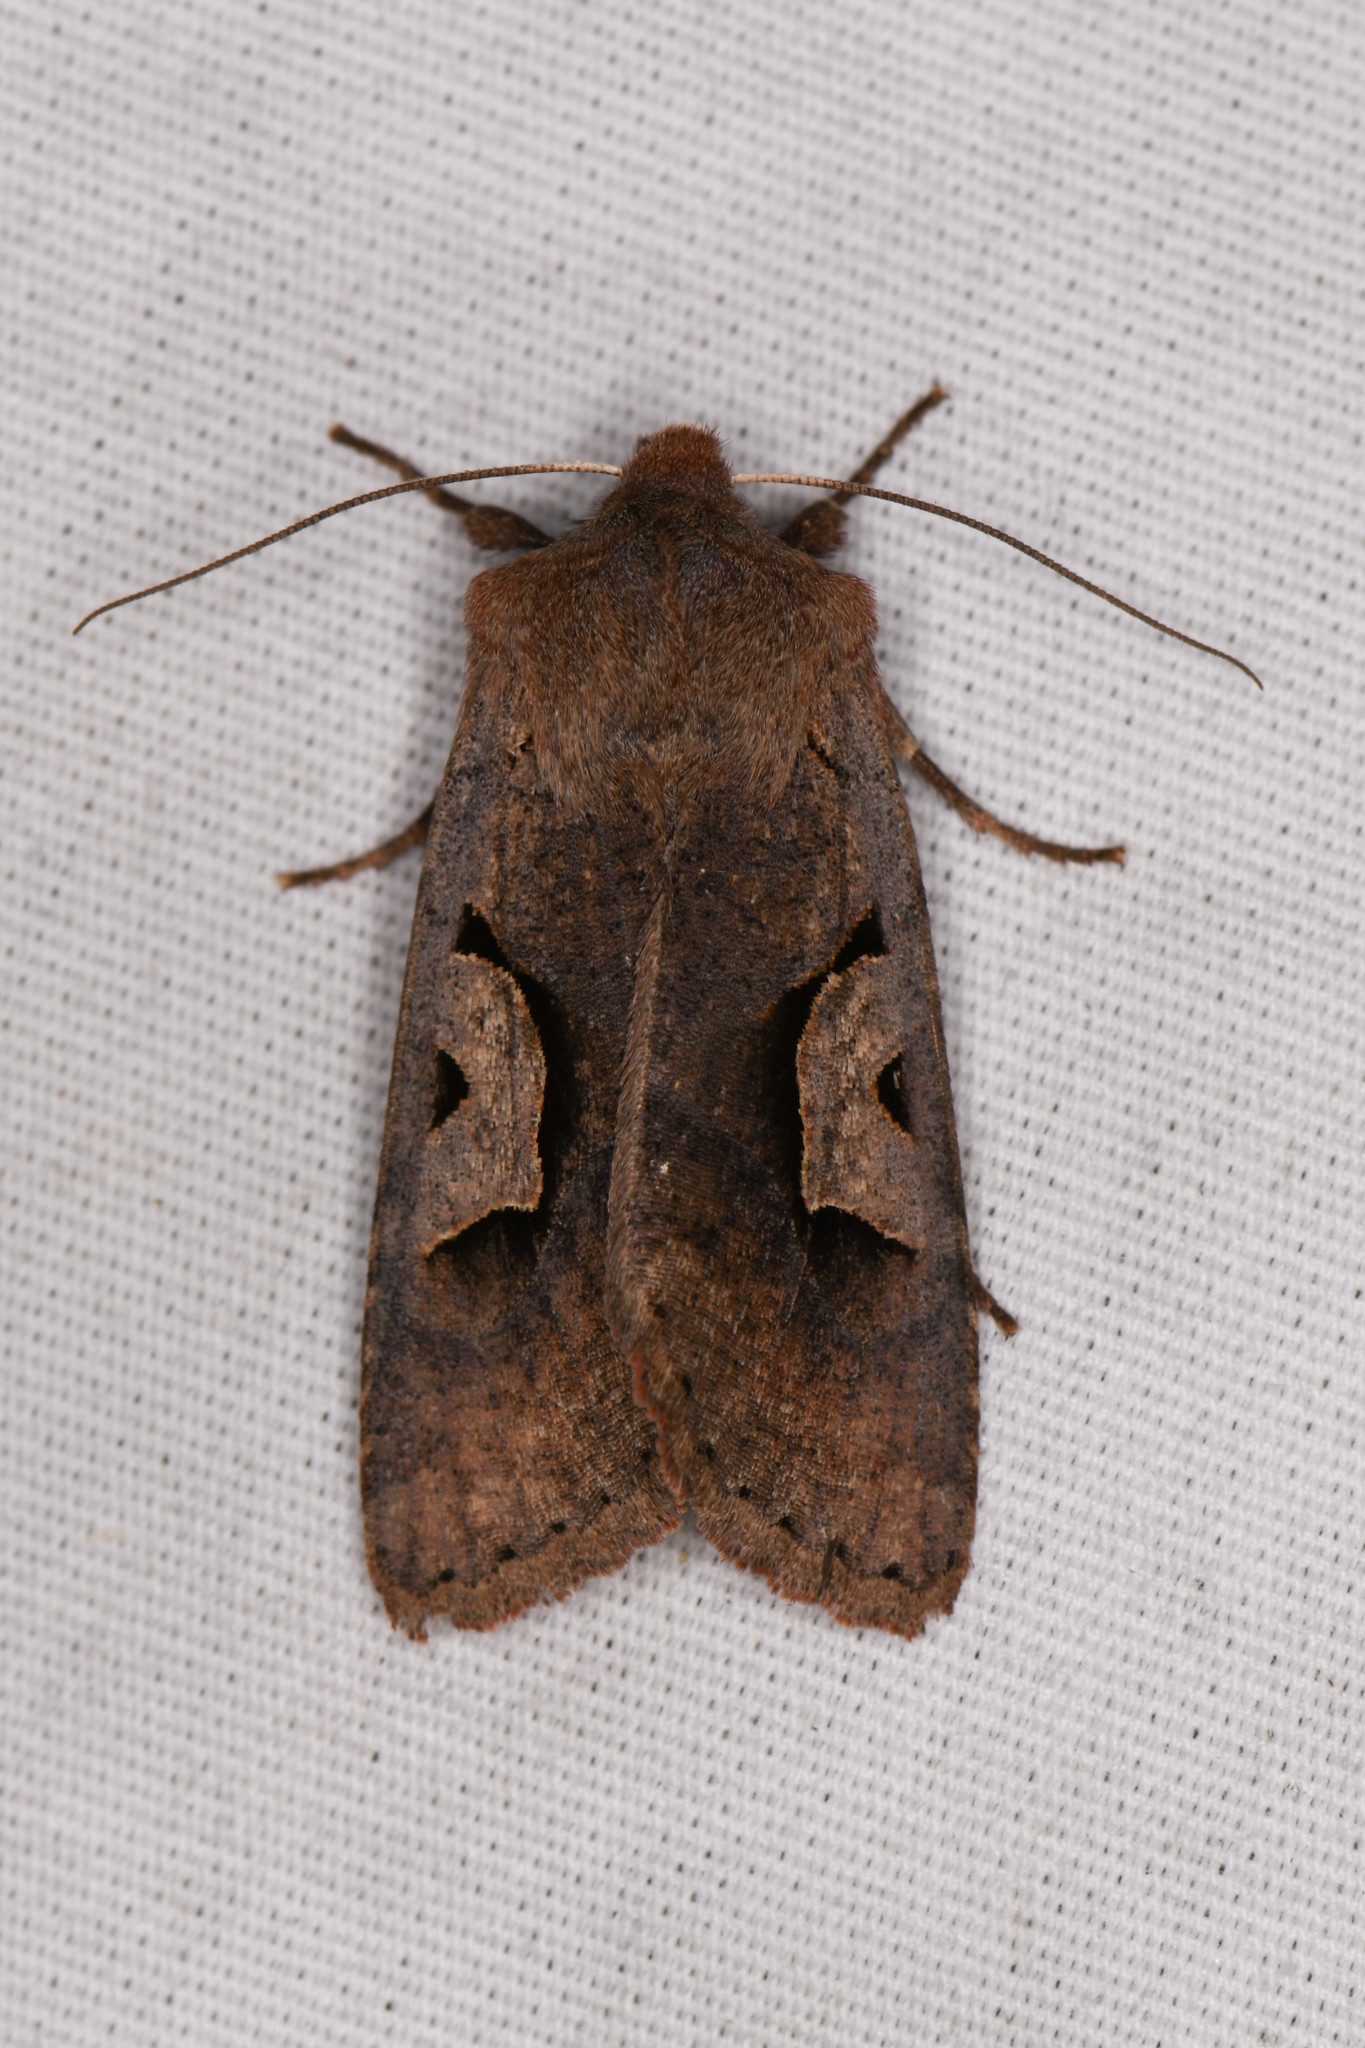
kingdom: Animalia
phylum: Arthropoda
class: Insecta
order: Lepidoptera
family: Noctuidae
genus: Acerra
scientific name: Acerra normalis
